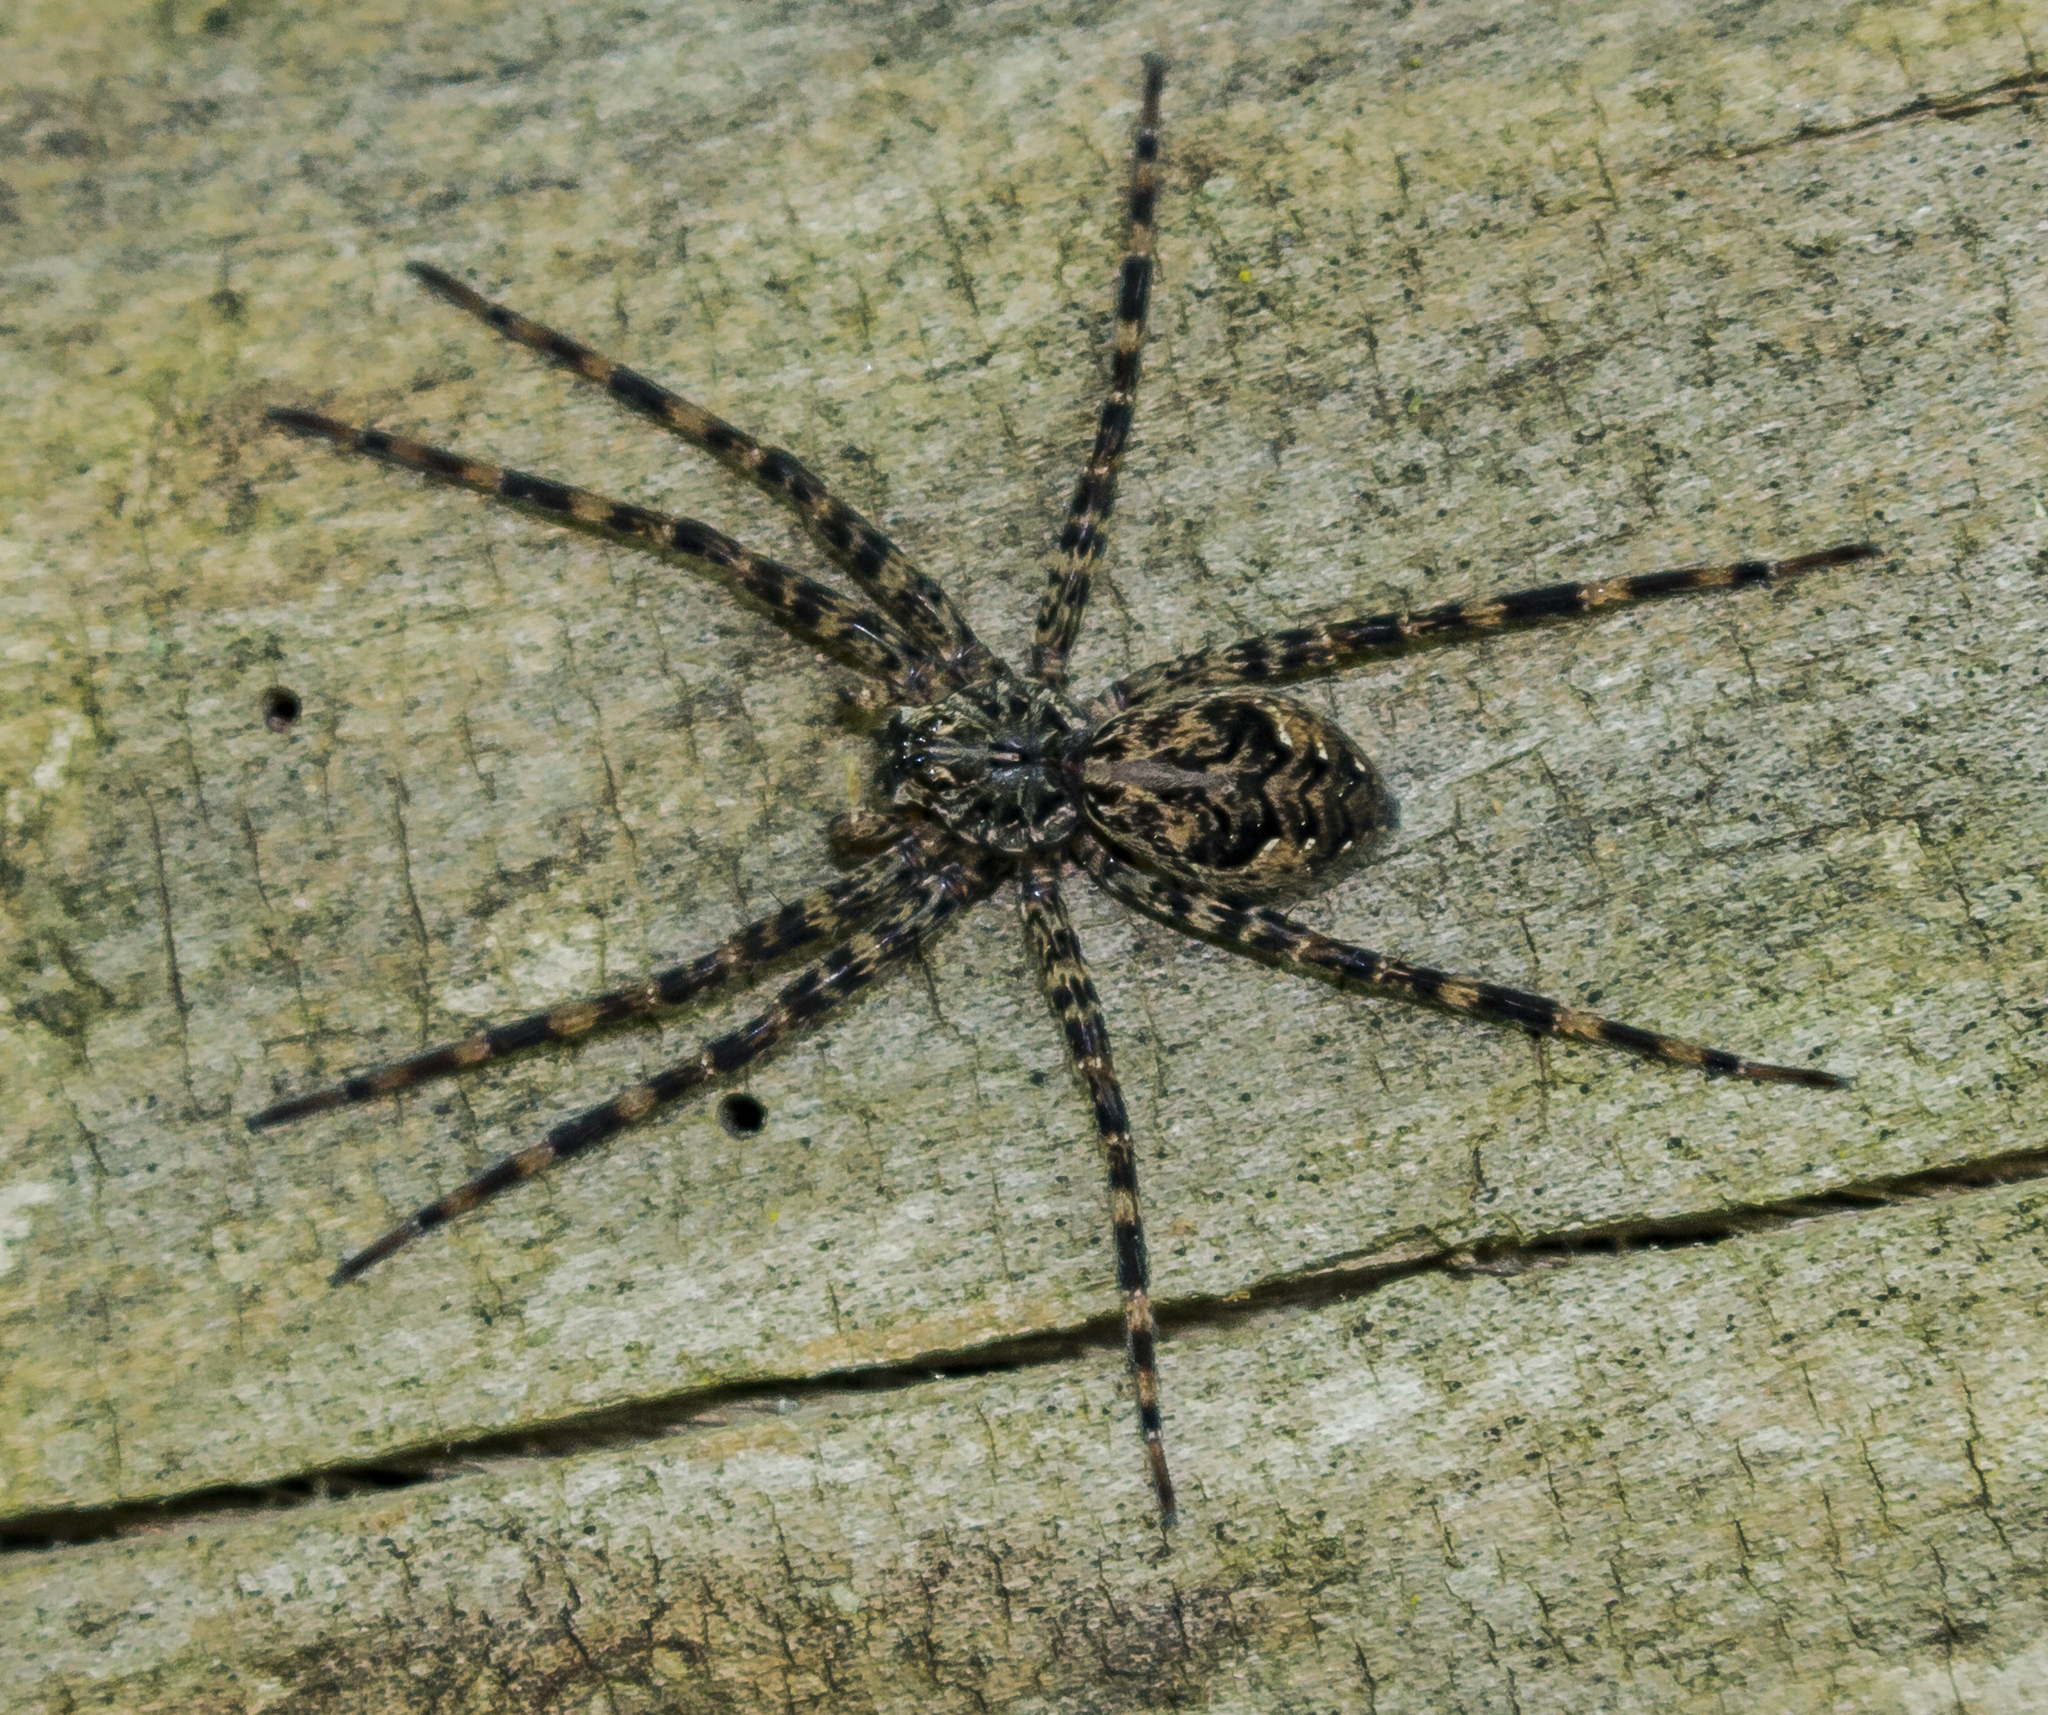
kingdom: Animalia
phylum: Arthropoda
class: Arachnida
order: Araneae
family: Pisauridae
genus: Dolomedes
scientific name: Dolomedes tenebrosus
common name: Dark fishing spider
